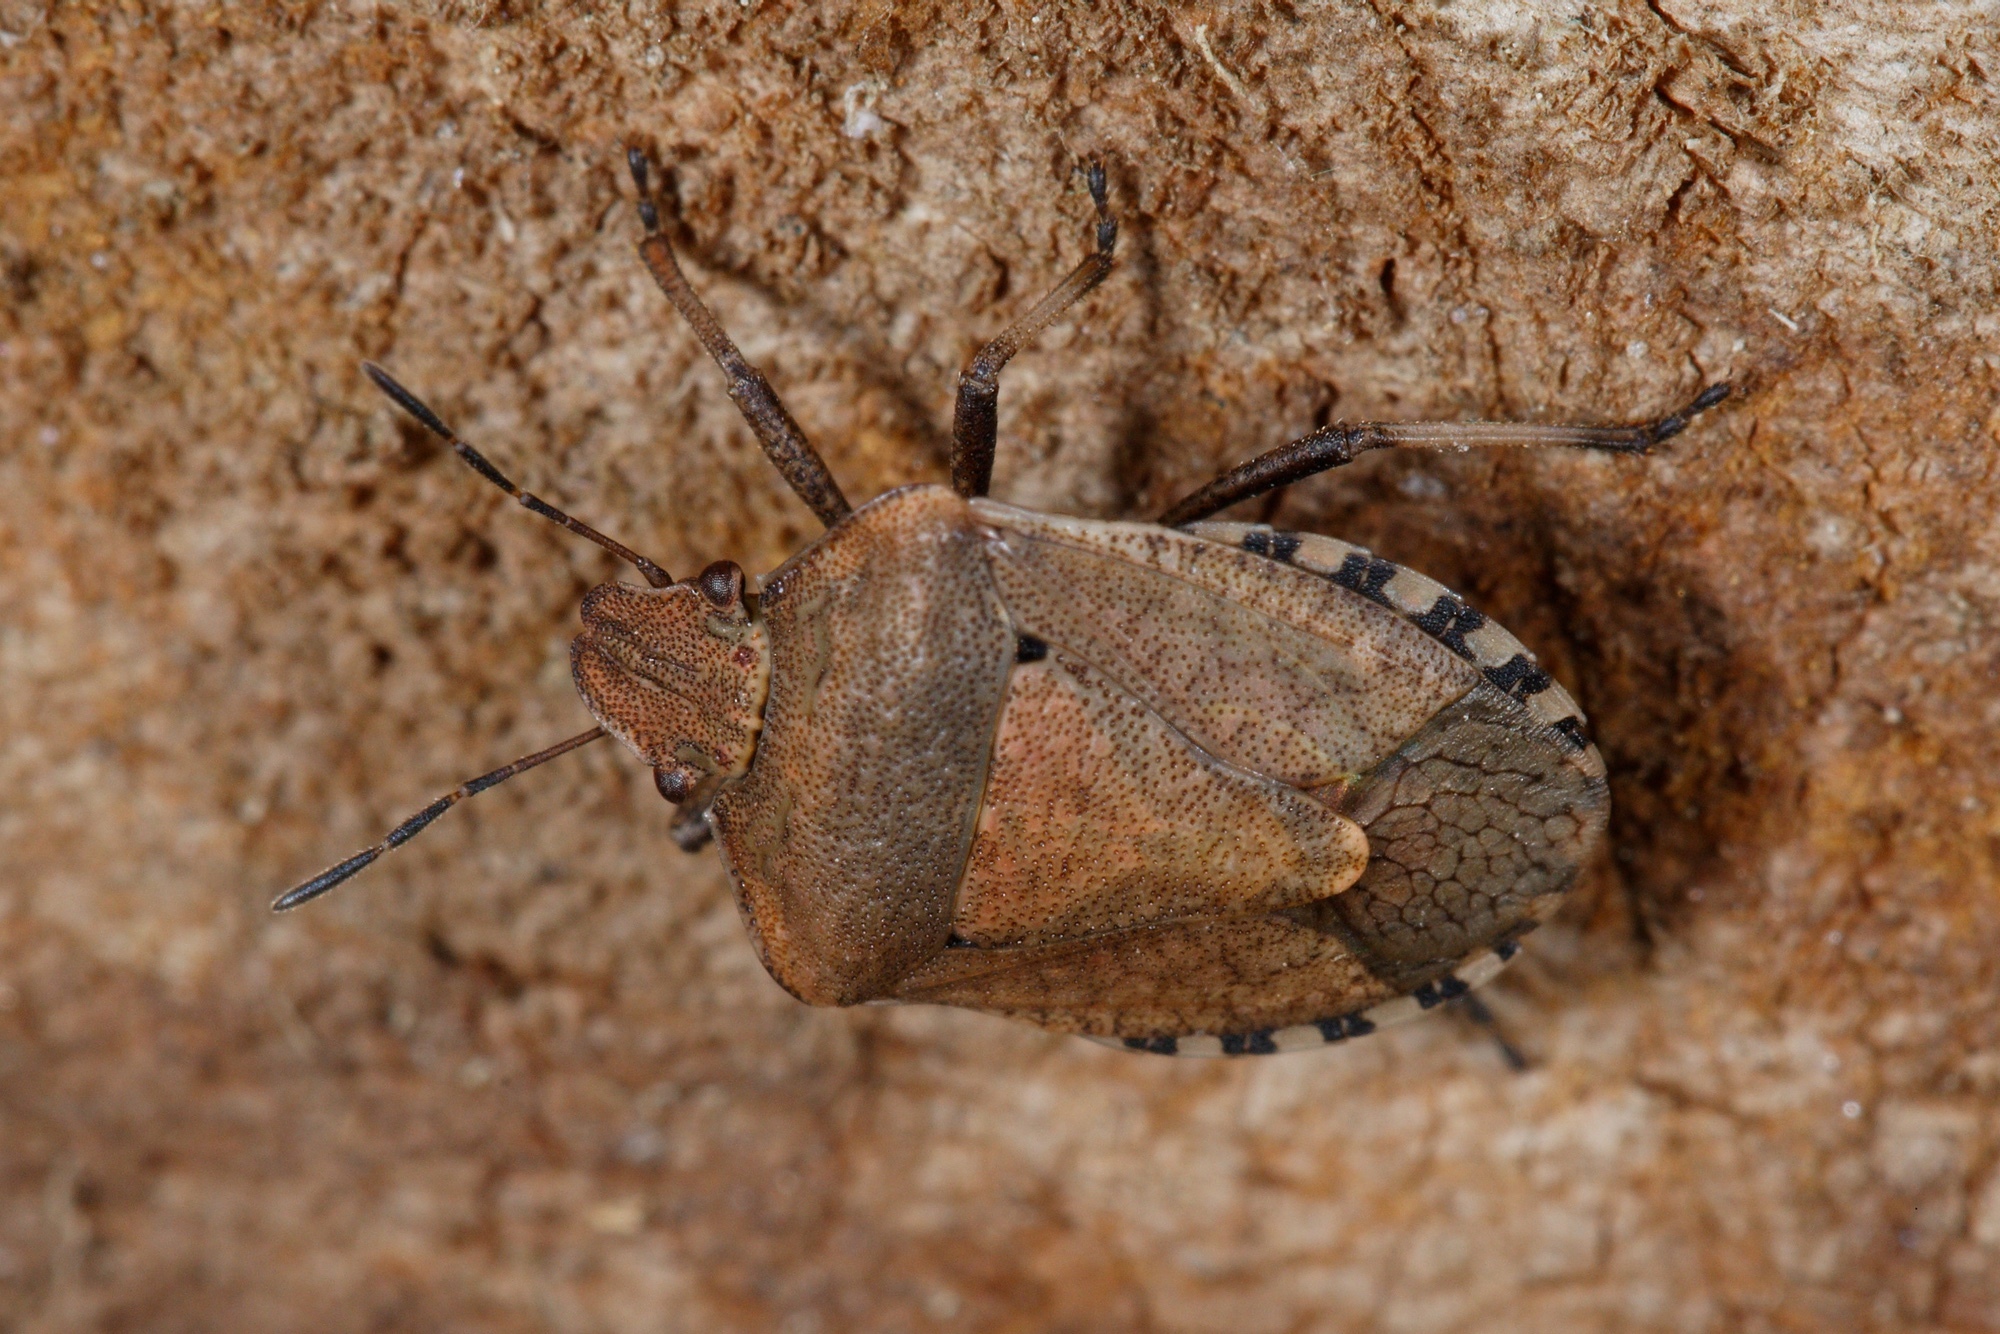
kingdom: Animalia
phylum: Arthropoda
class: Insecta
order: Hemiptera
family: Pentatomidae
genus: Dictyotus
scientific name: Dictyotus caenosus
